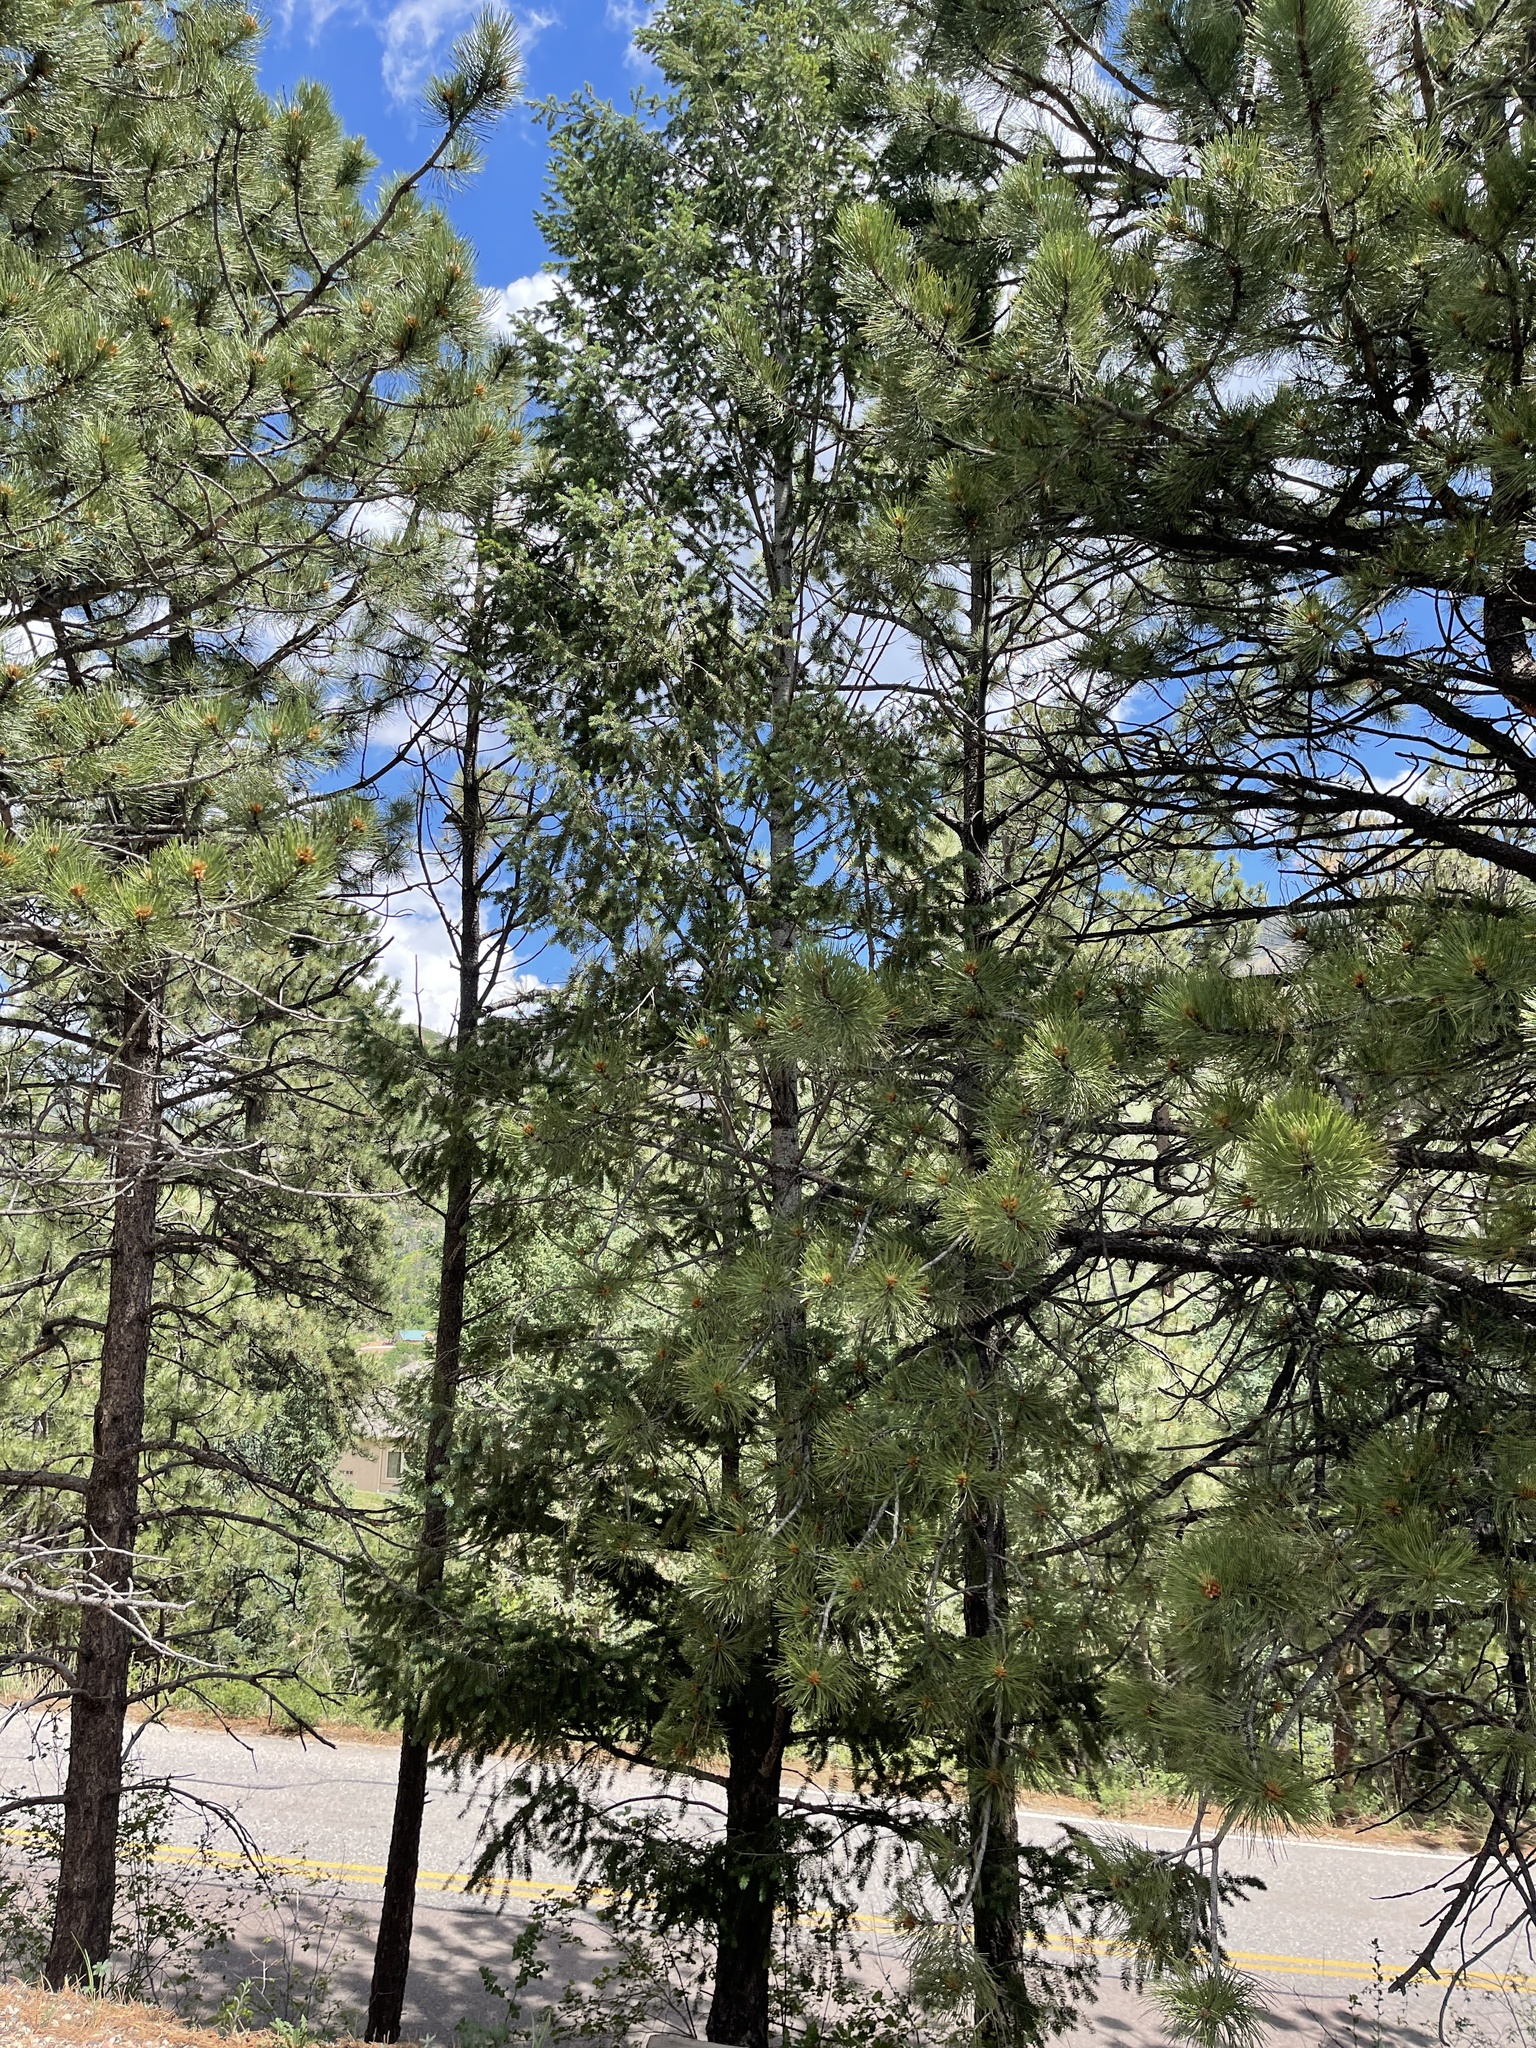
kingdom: Plantae
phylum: Tracheophyta
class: Pinopsida
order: Pinales
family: Pinaceae
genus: Pinus
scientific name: Pinus ponderosa
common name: Western yellow-pine
